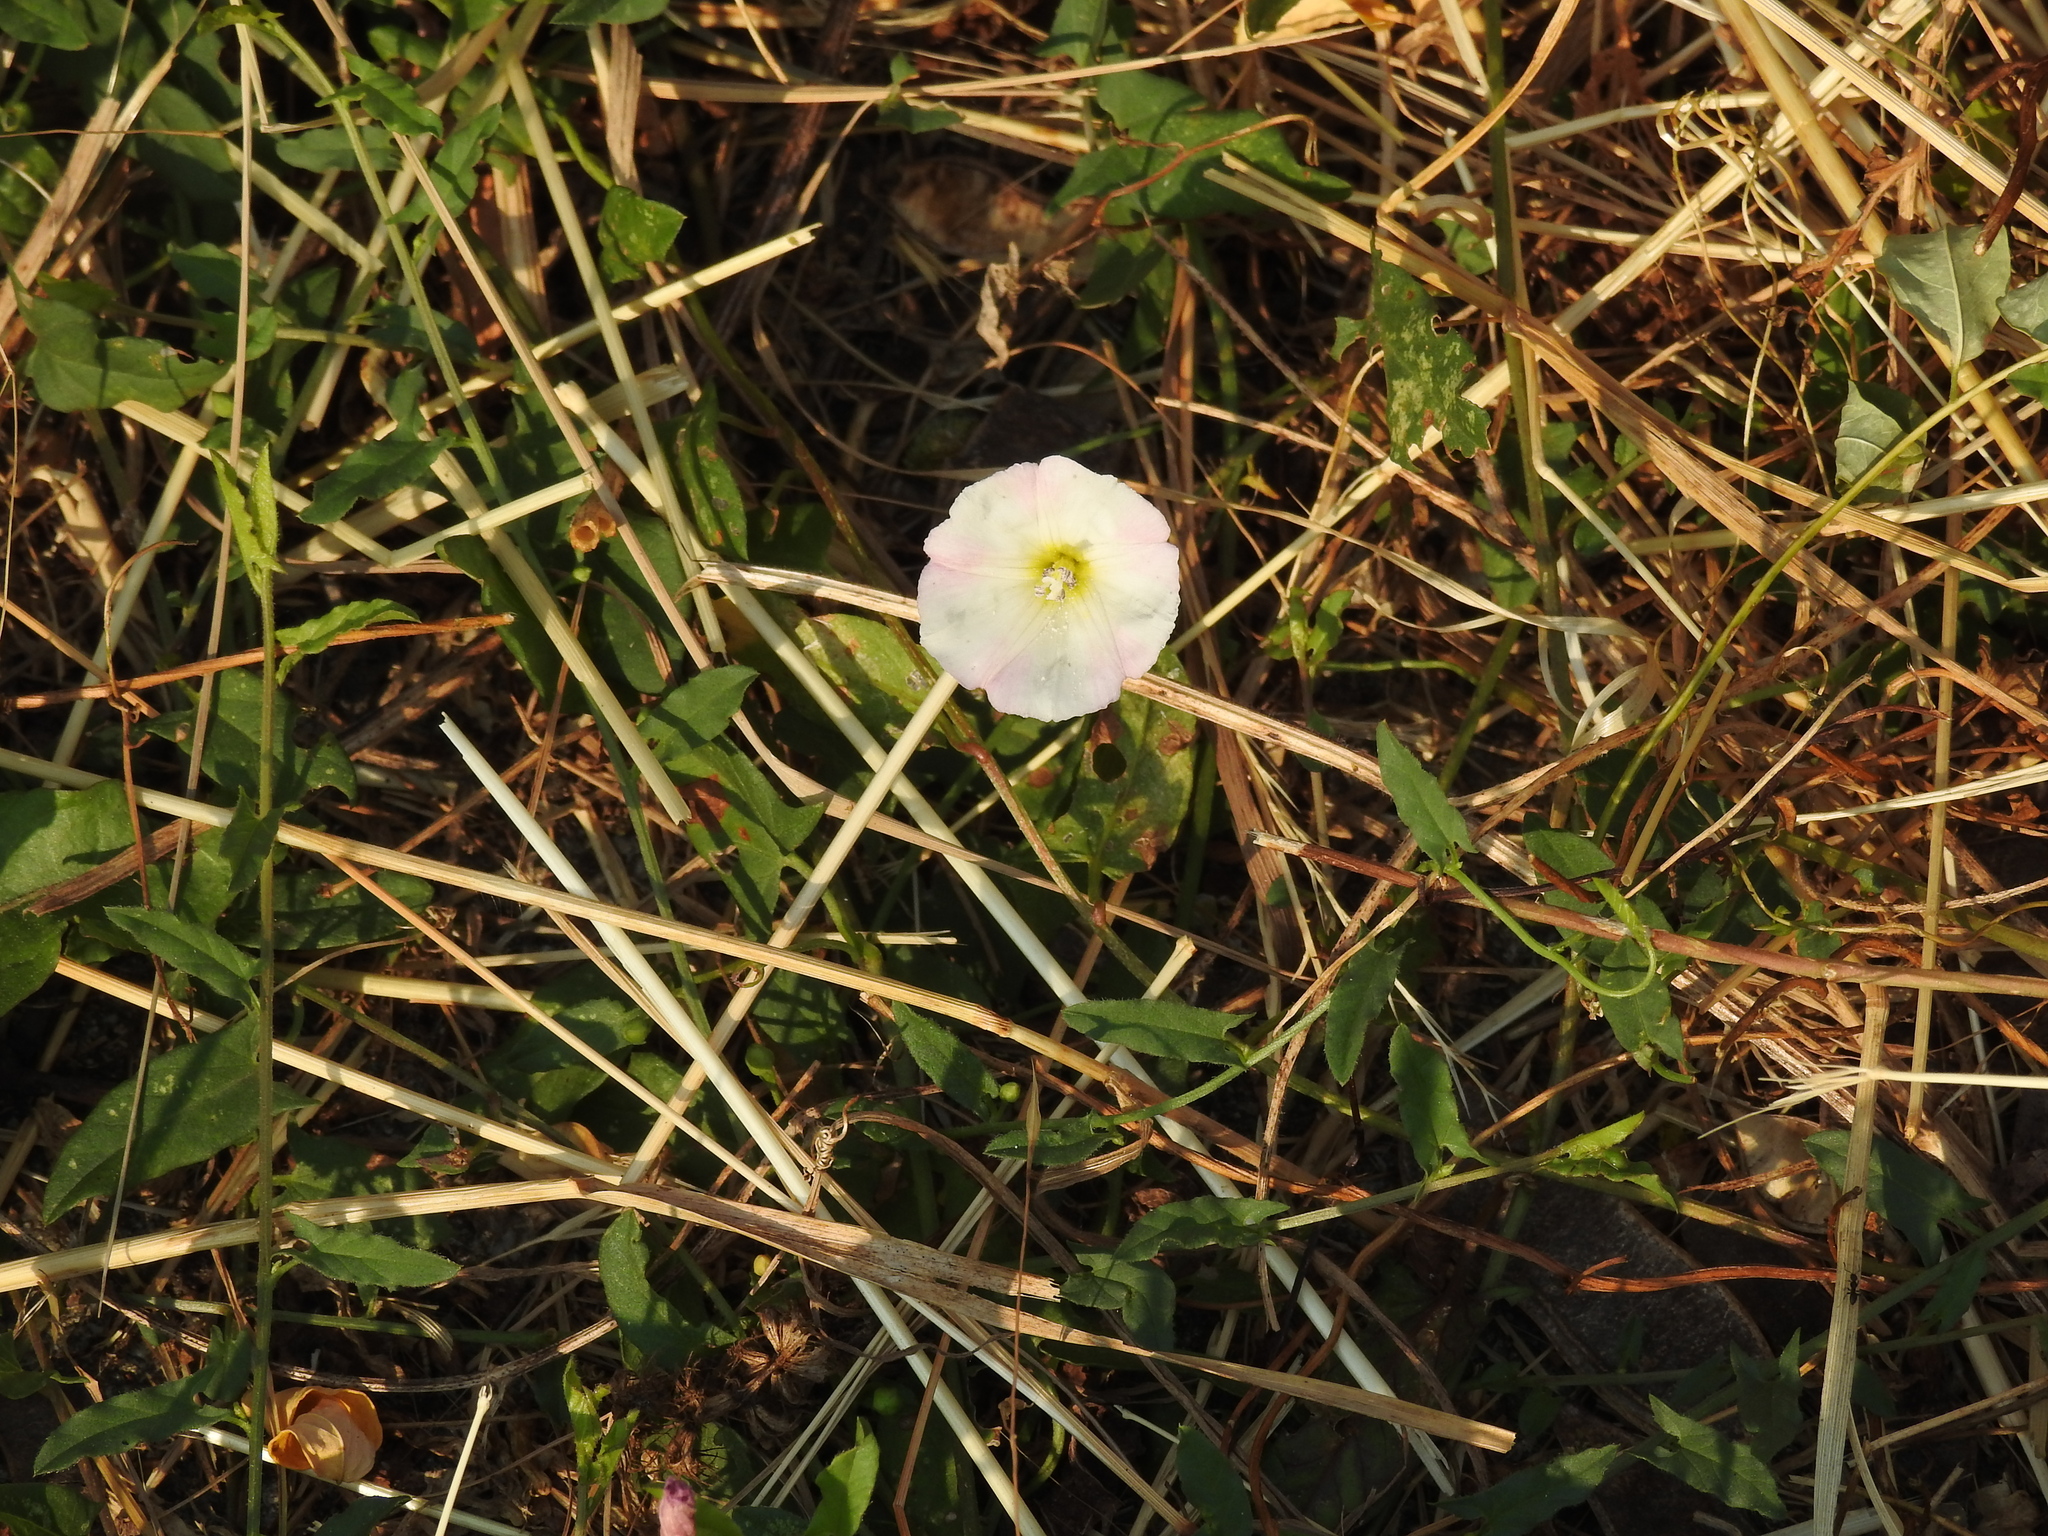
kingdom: Plantae
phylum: Tracheophyta
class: Magnoliopsida
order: Solanales
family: Convolvulaceae
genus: Convolvulus
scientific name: Convolvulus arvensis
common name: Field bindweed
